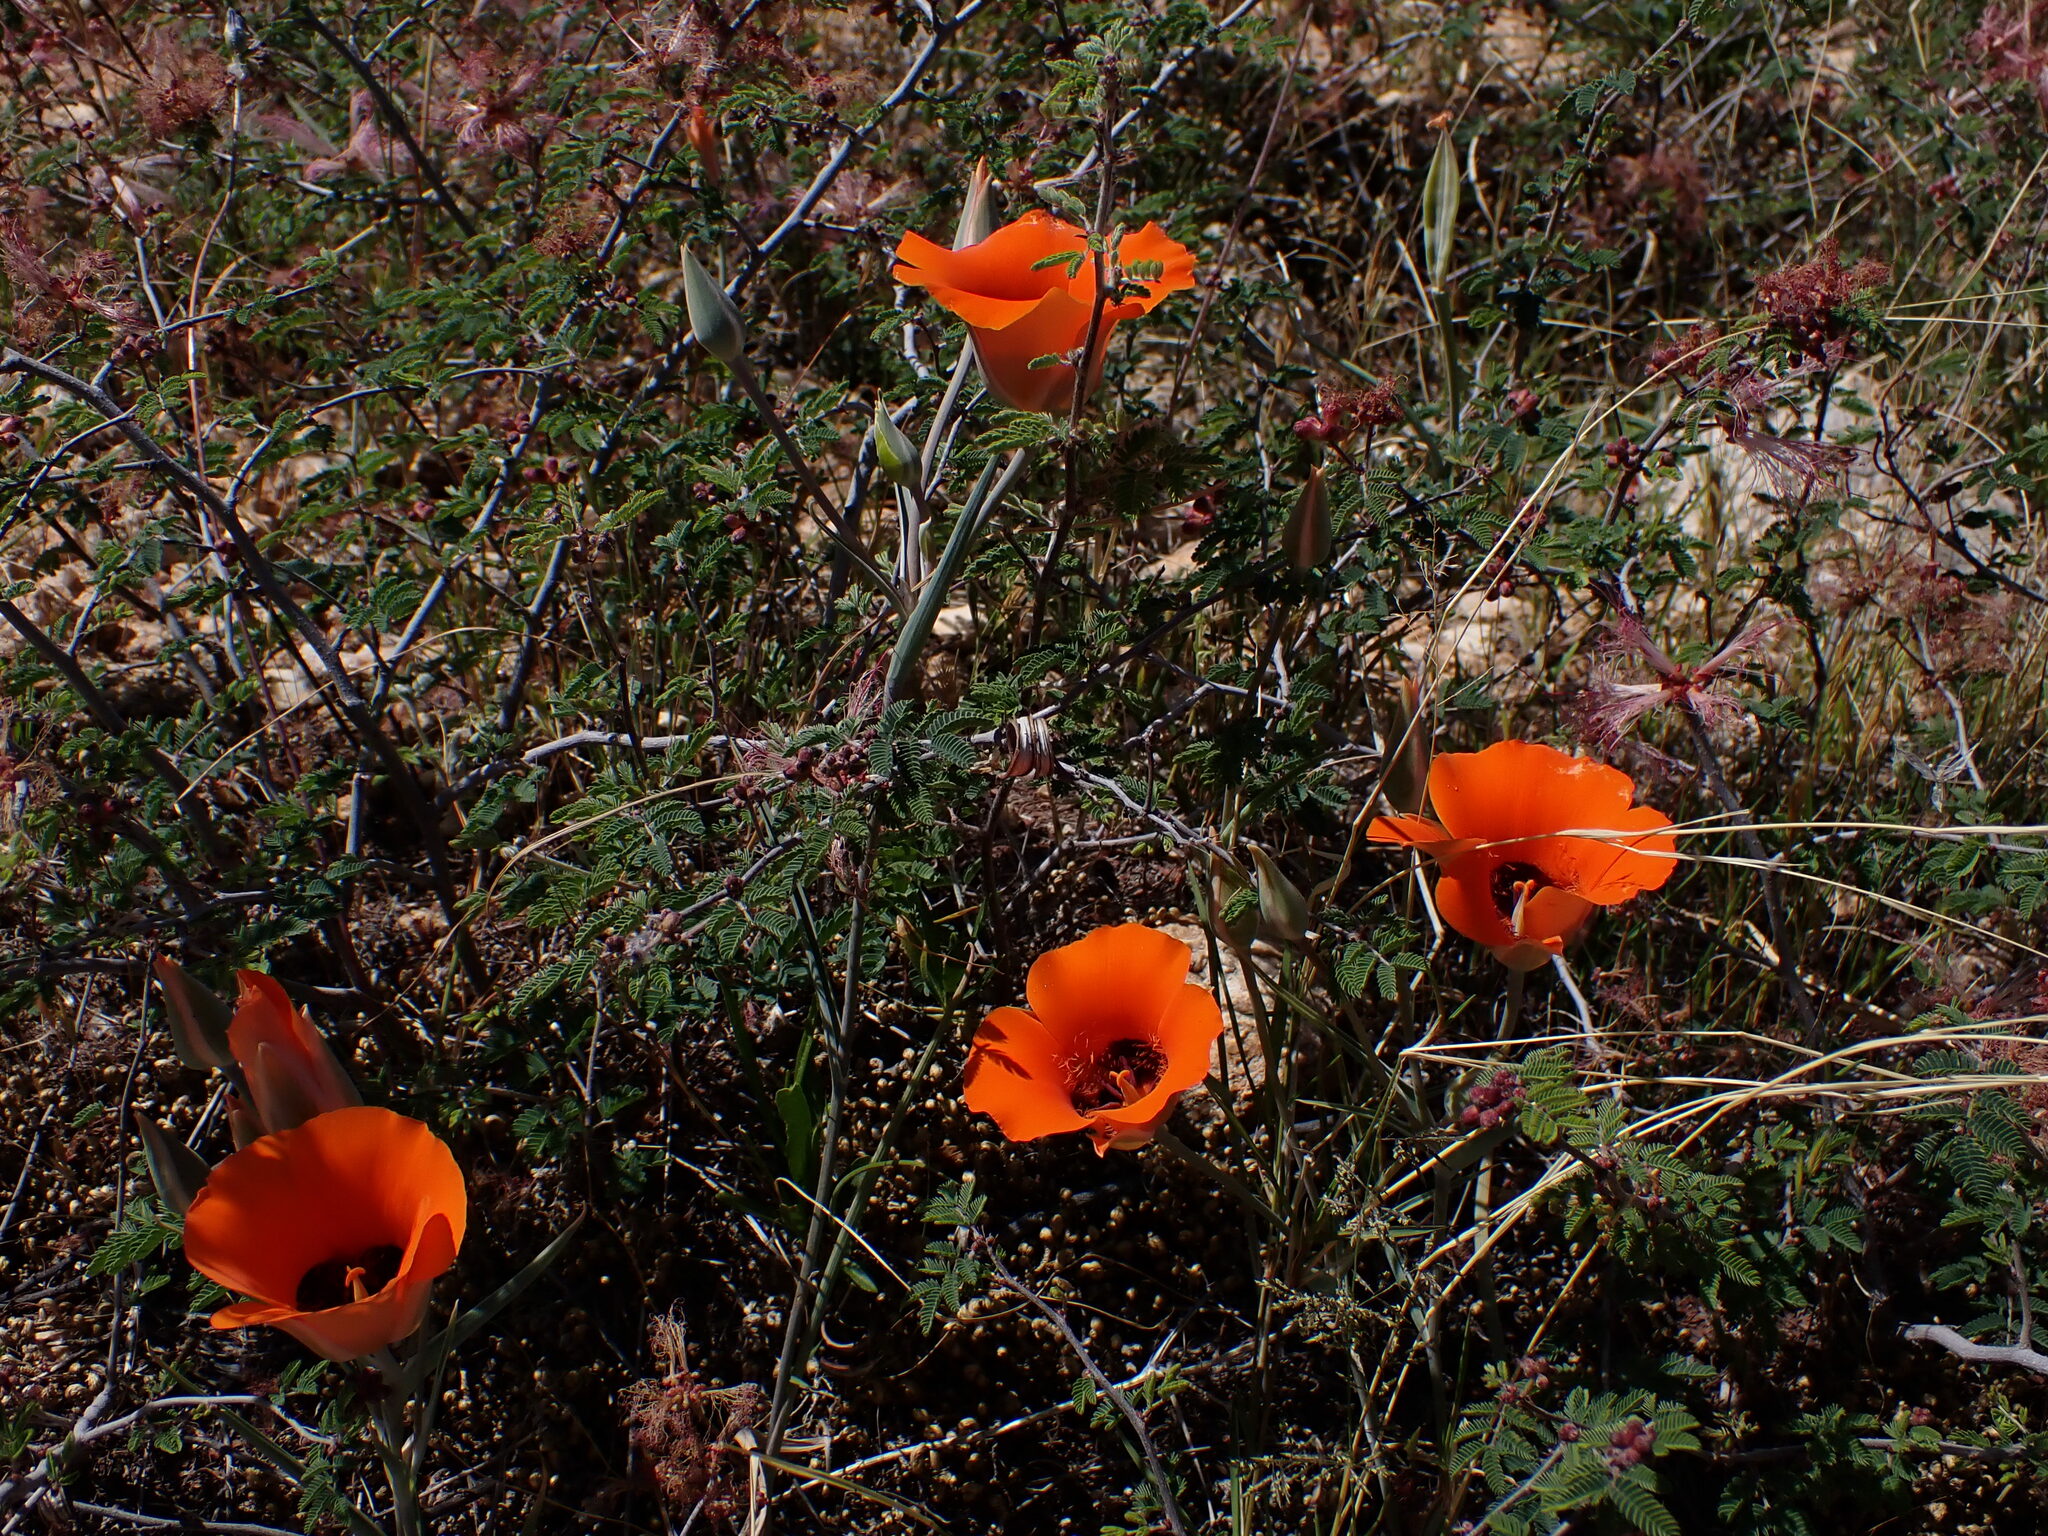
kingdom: Plantae
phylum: Tracheophyta
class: Liliopsida
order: Liliales
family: Liliaceae
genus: Calochortus
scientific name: Calochortus kennedyi
